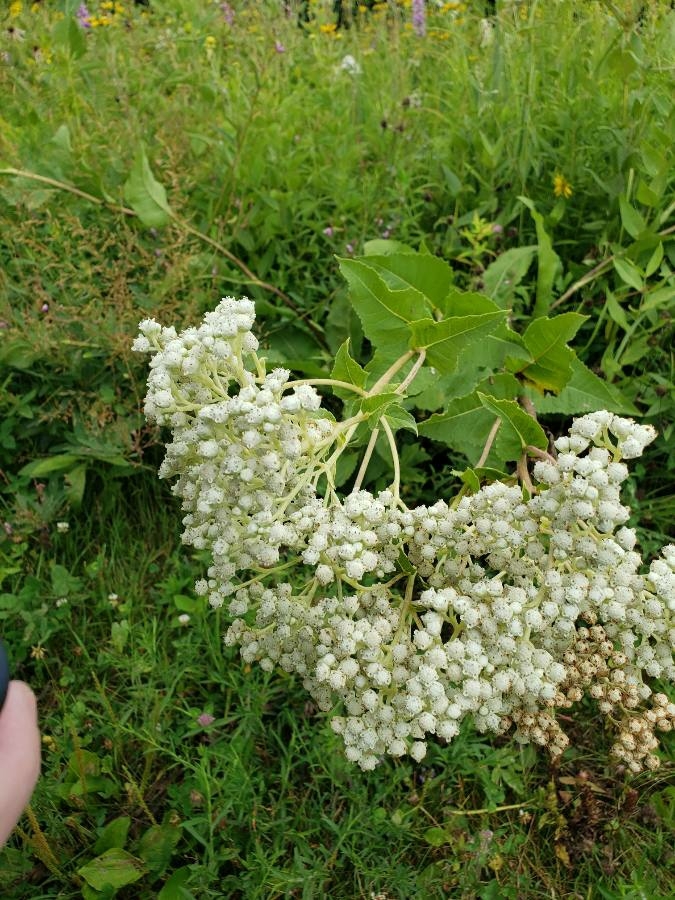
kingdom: Plantae
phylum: Tracheophyta
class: Magnoliopsida
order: Asterales
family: Asteraceae
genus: Parthenium
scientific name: Parthenium integrifolium
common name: American feverfew
